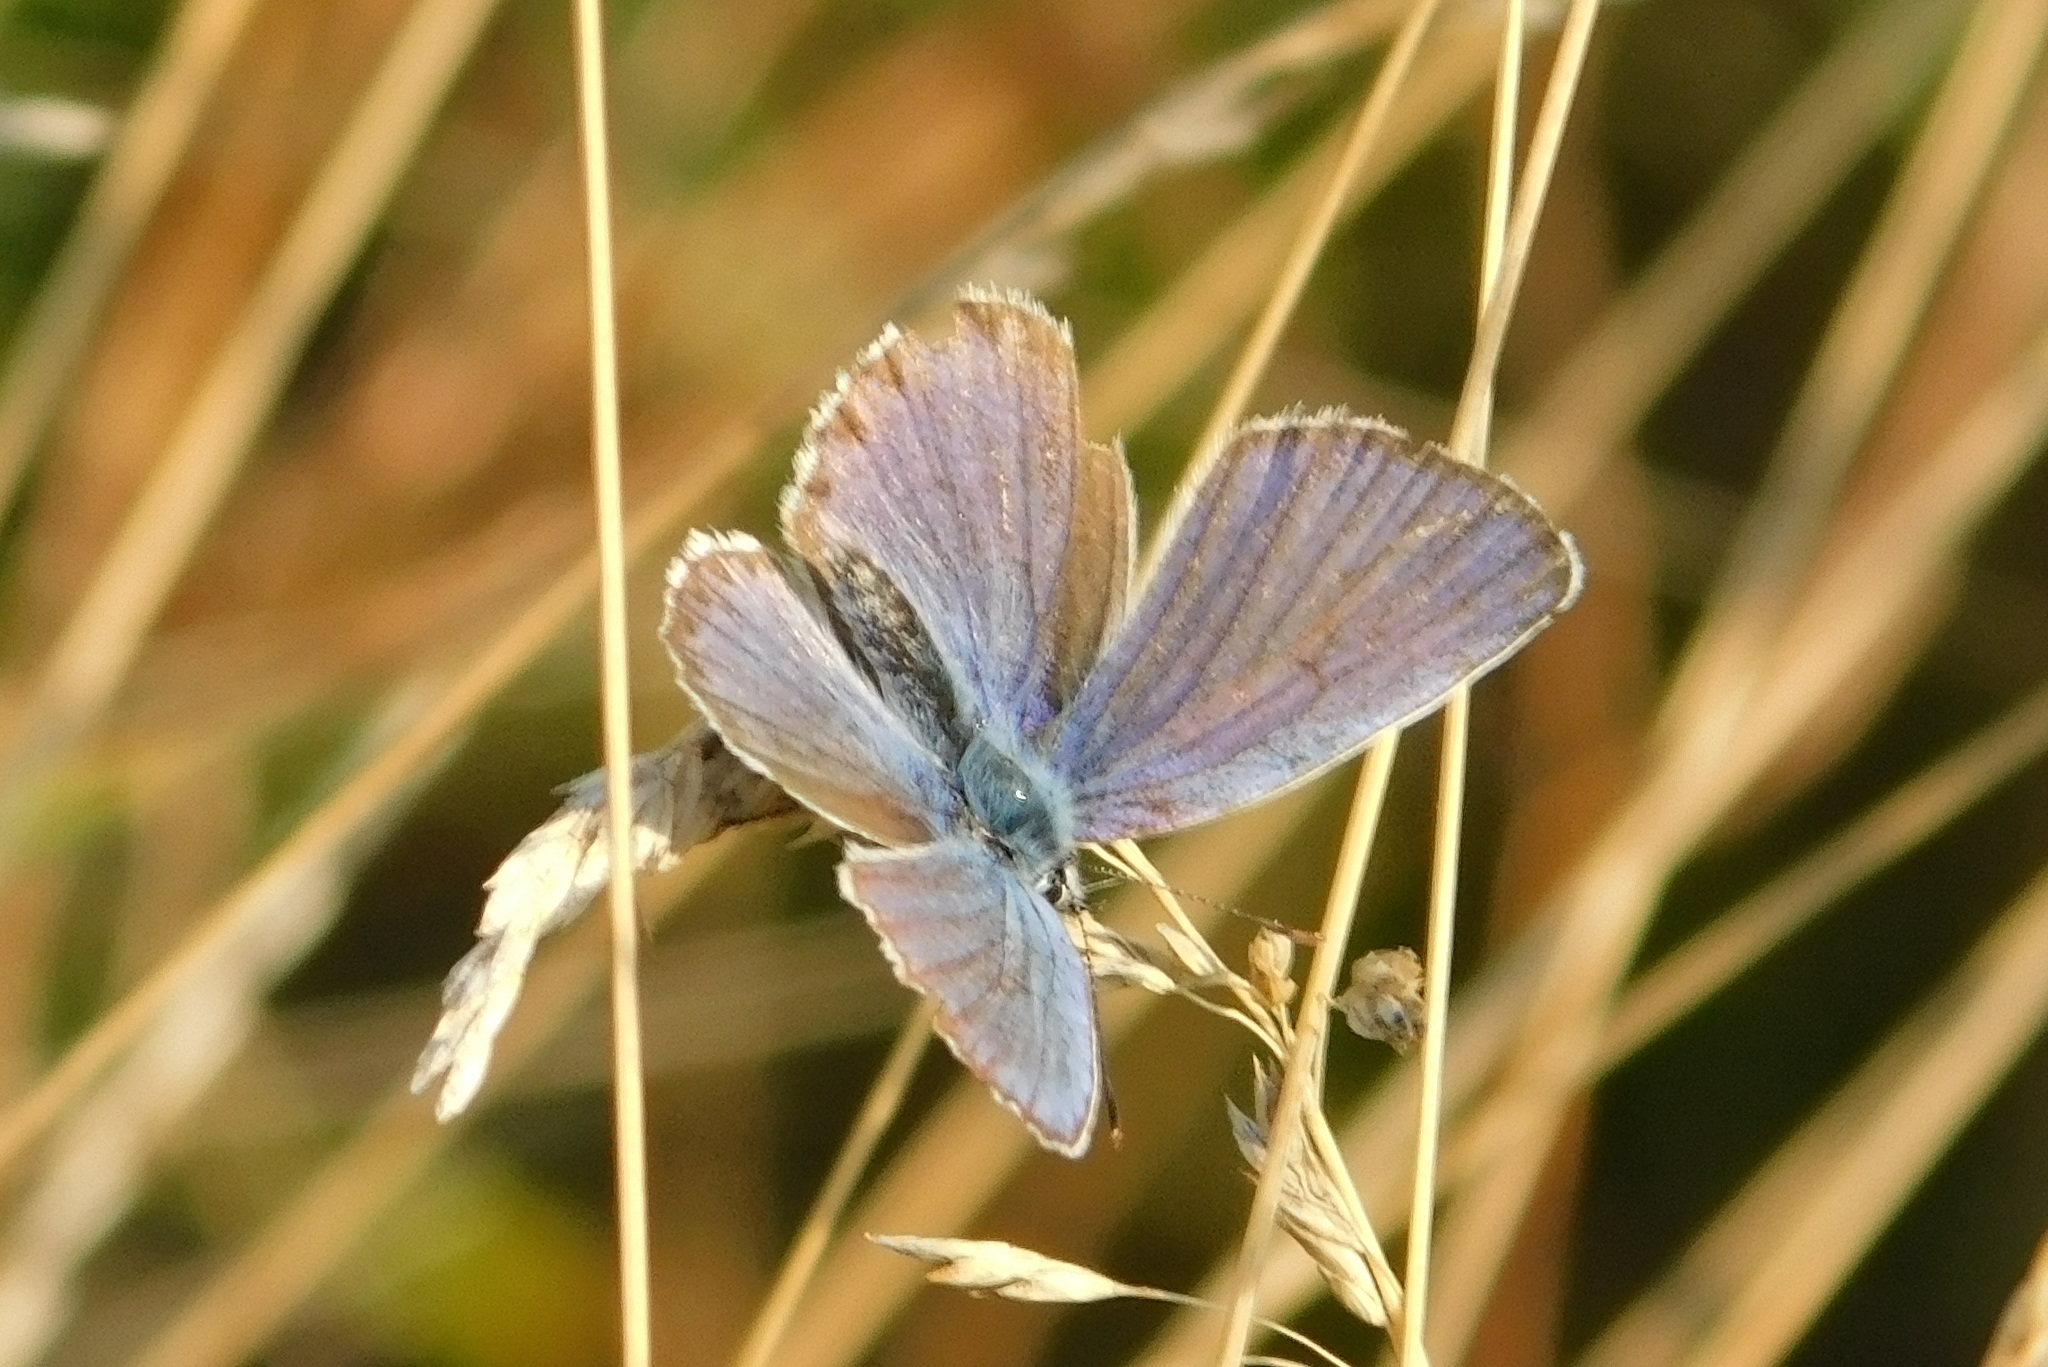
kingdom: Animalia
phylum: Arthropoda
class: Insecta
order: Lepidoptera
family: Lycaenidae
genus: Plebejus
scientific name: Plebejus argyrognomon
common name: Reverdin's blue
